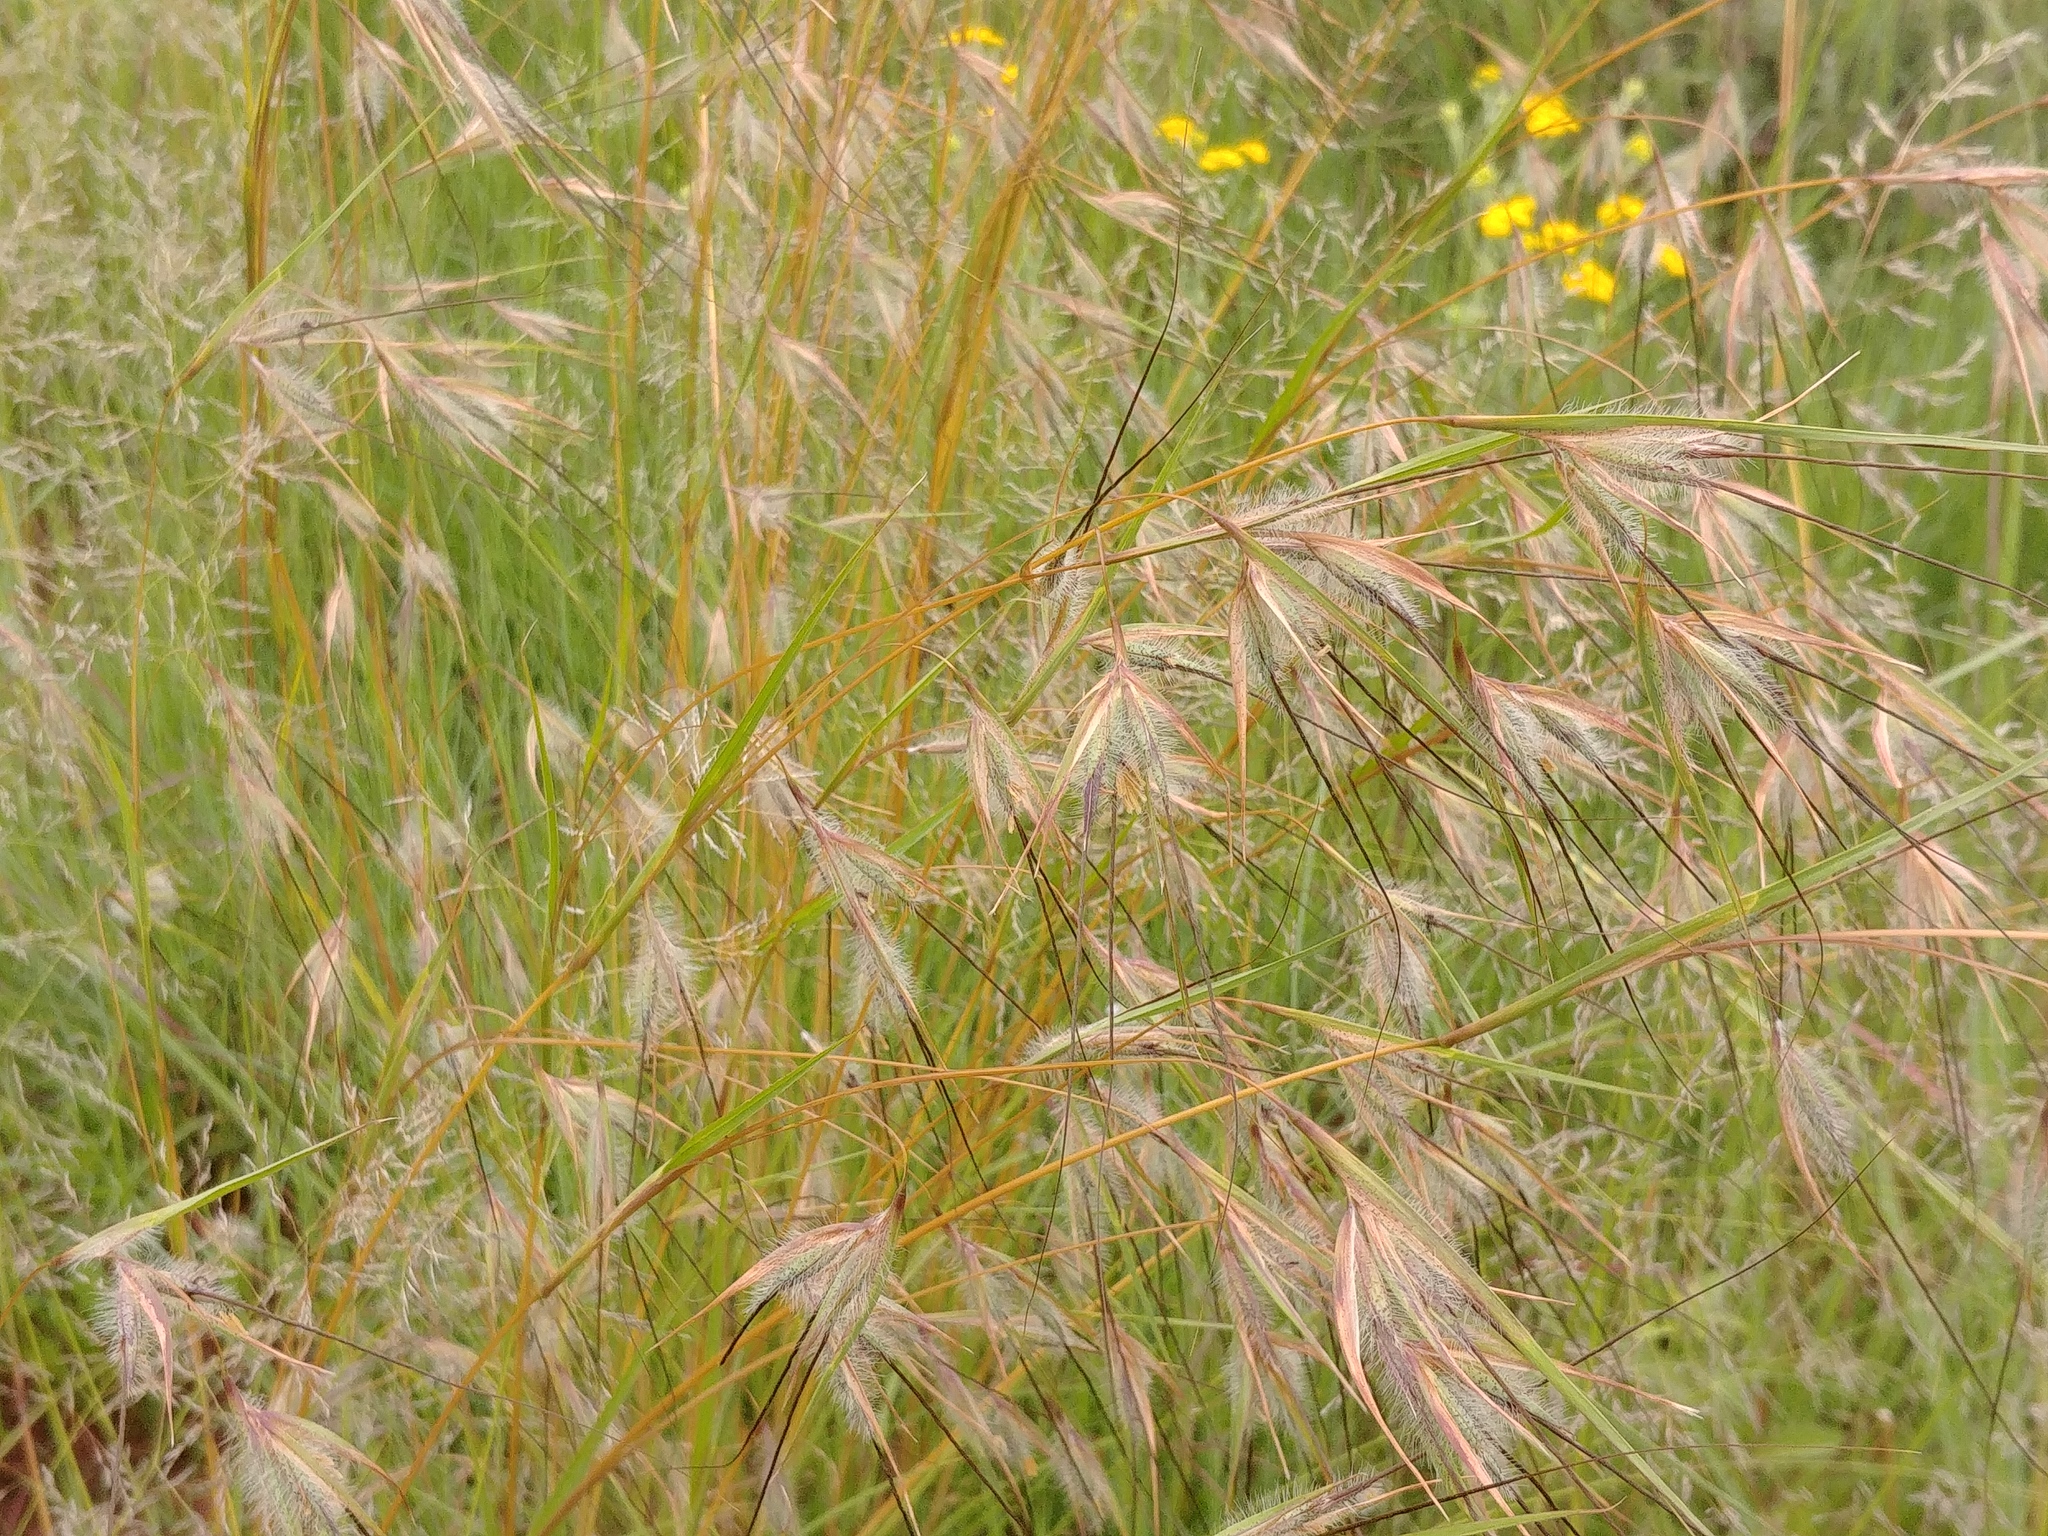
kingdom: Plantae
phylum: Tracheophyta
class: Liliopsida
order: Poales
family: Poaceae
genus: Themeda
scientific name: Themeda triandra
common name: Kangaroo grass
